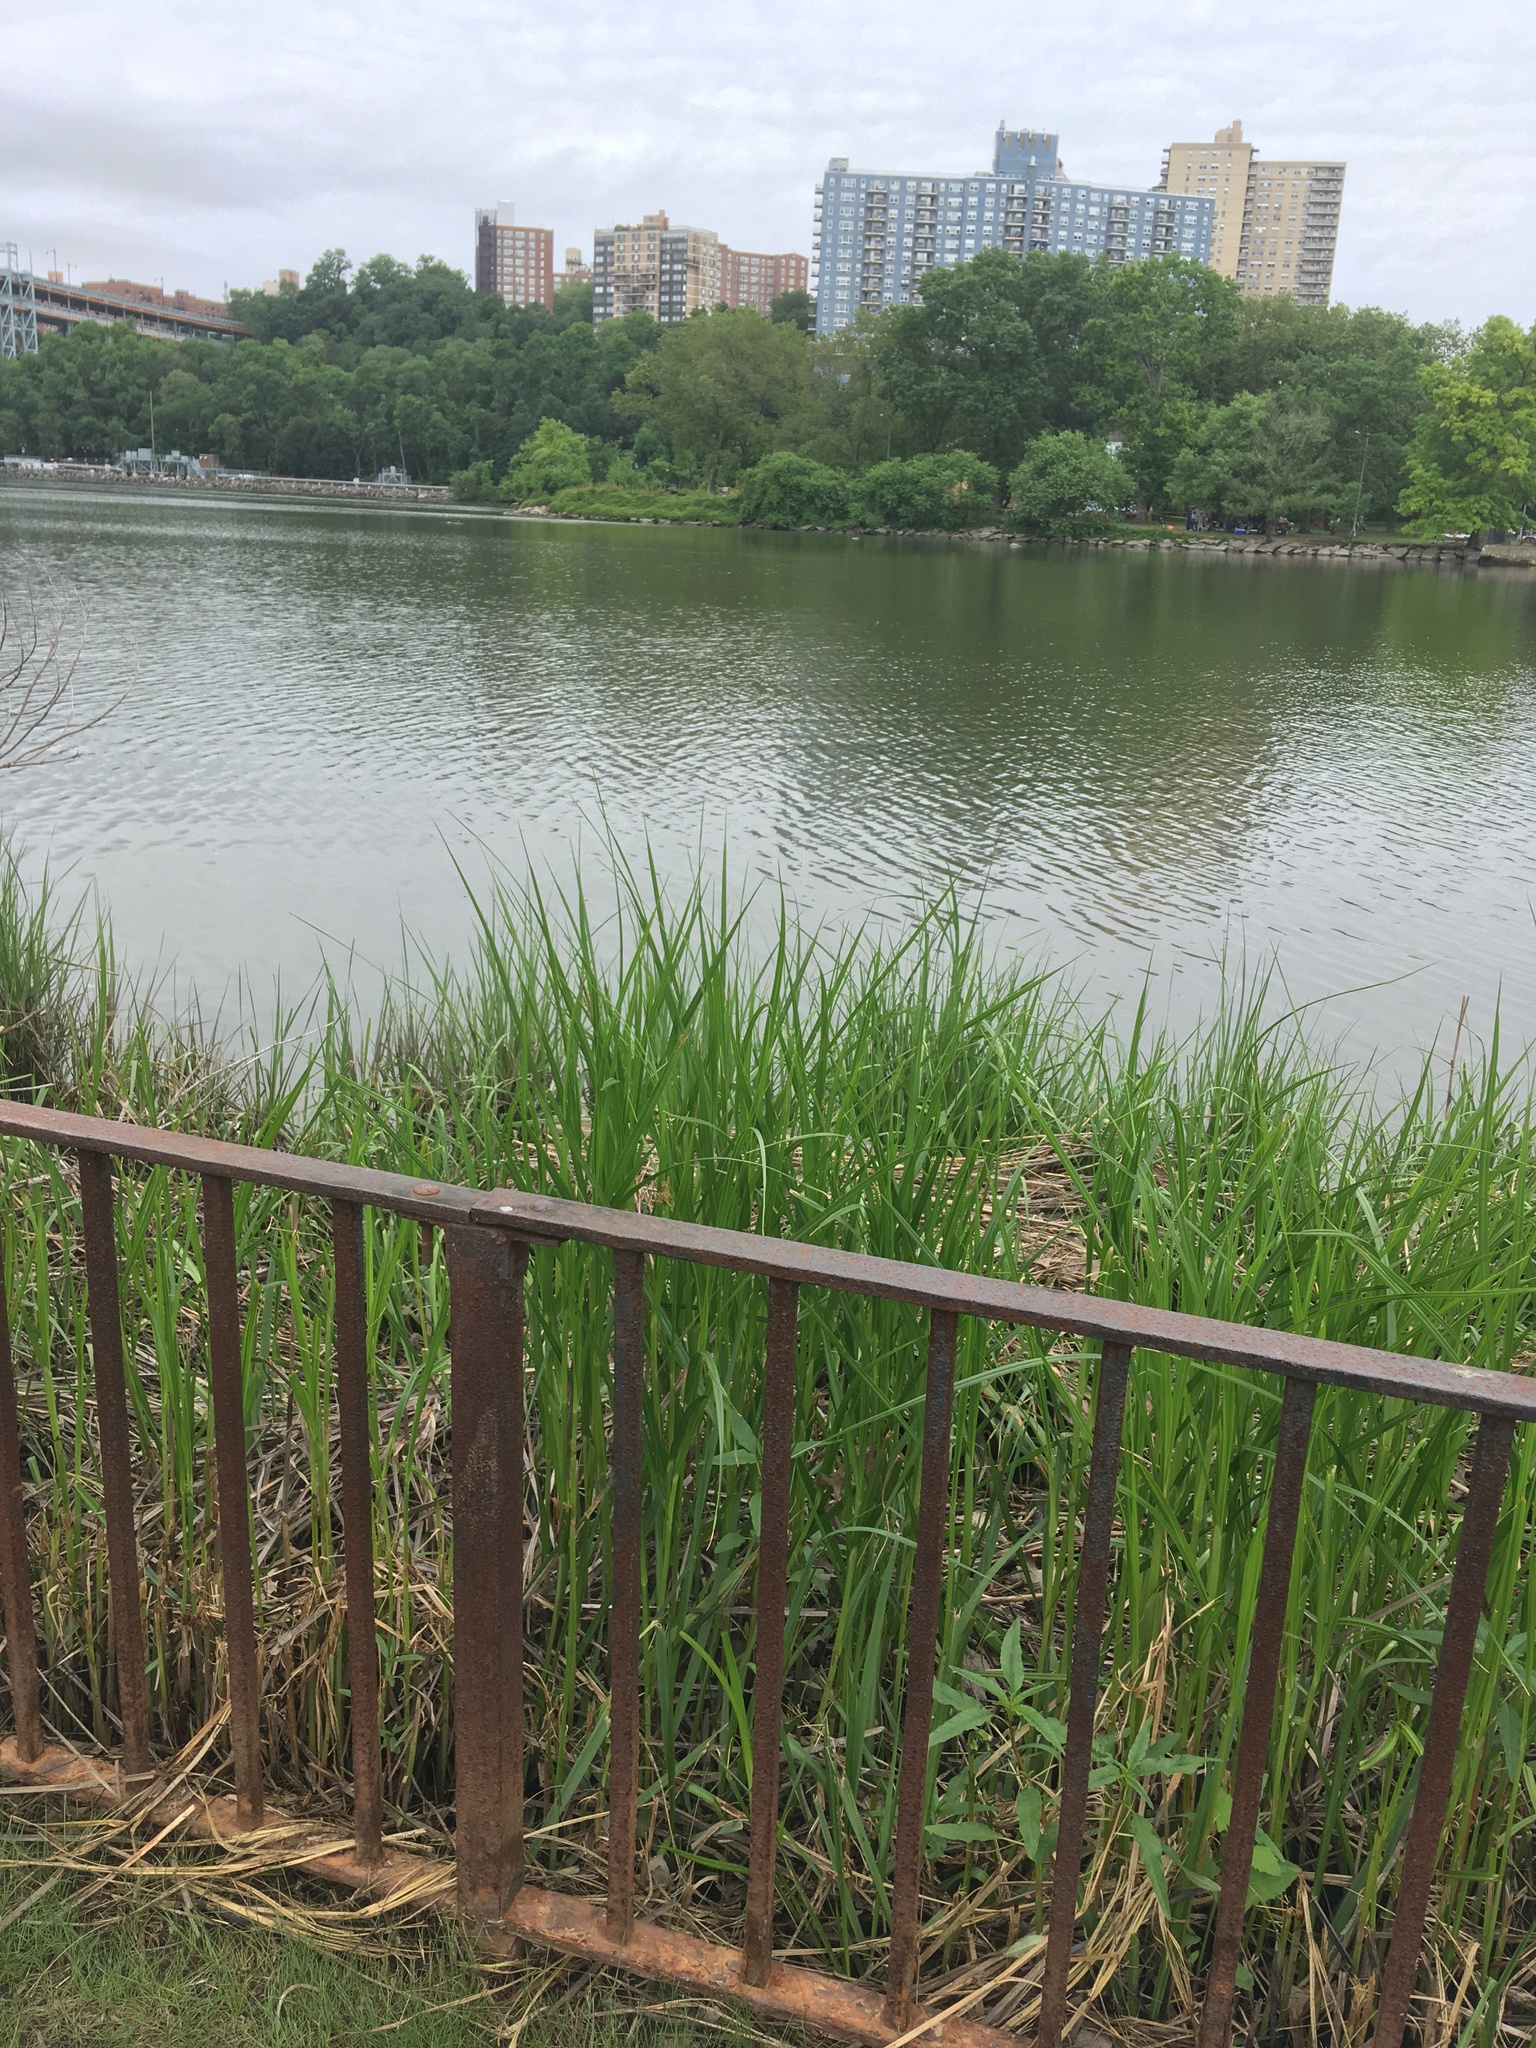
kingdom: Plantae
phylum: Tracheophyta
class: Liliopsida
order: Poales
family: Poaceae
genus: Sporobolus
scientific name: Sporobolus alterniflorus
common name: Atlantic cordgrass
